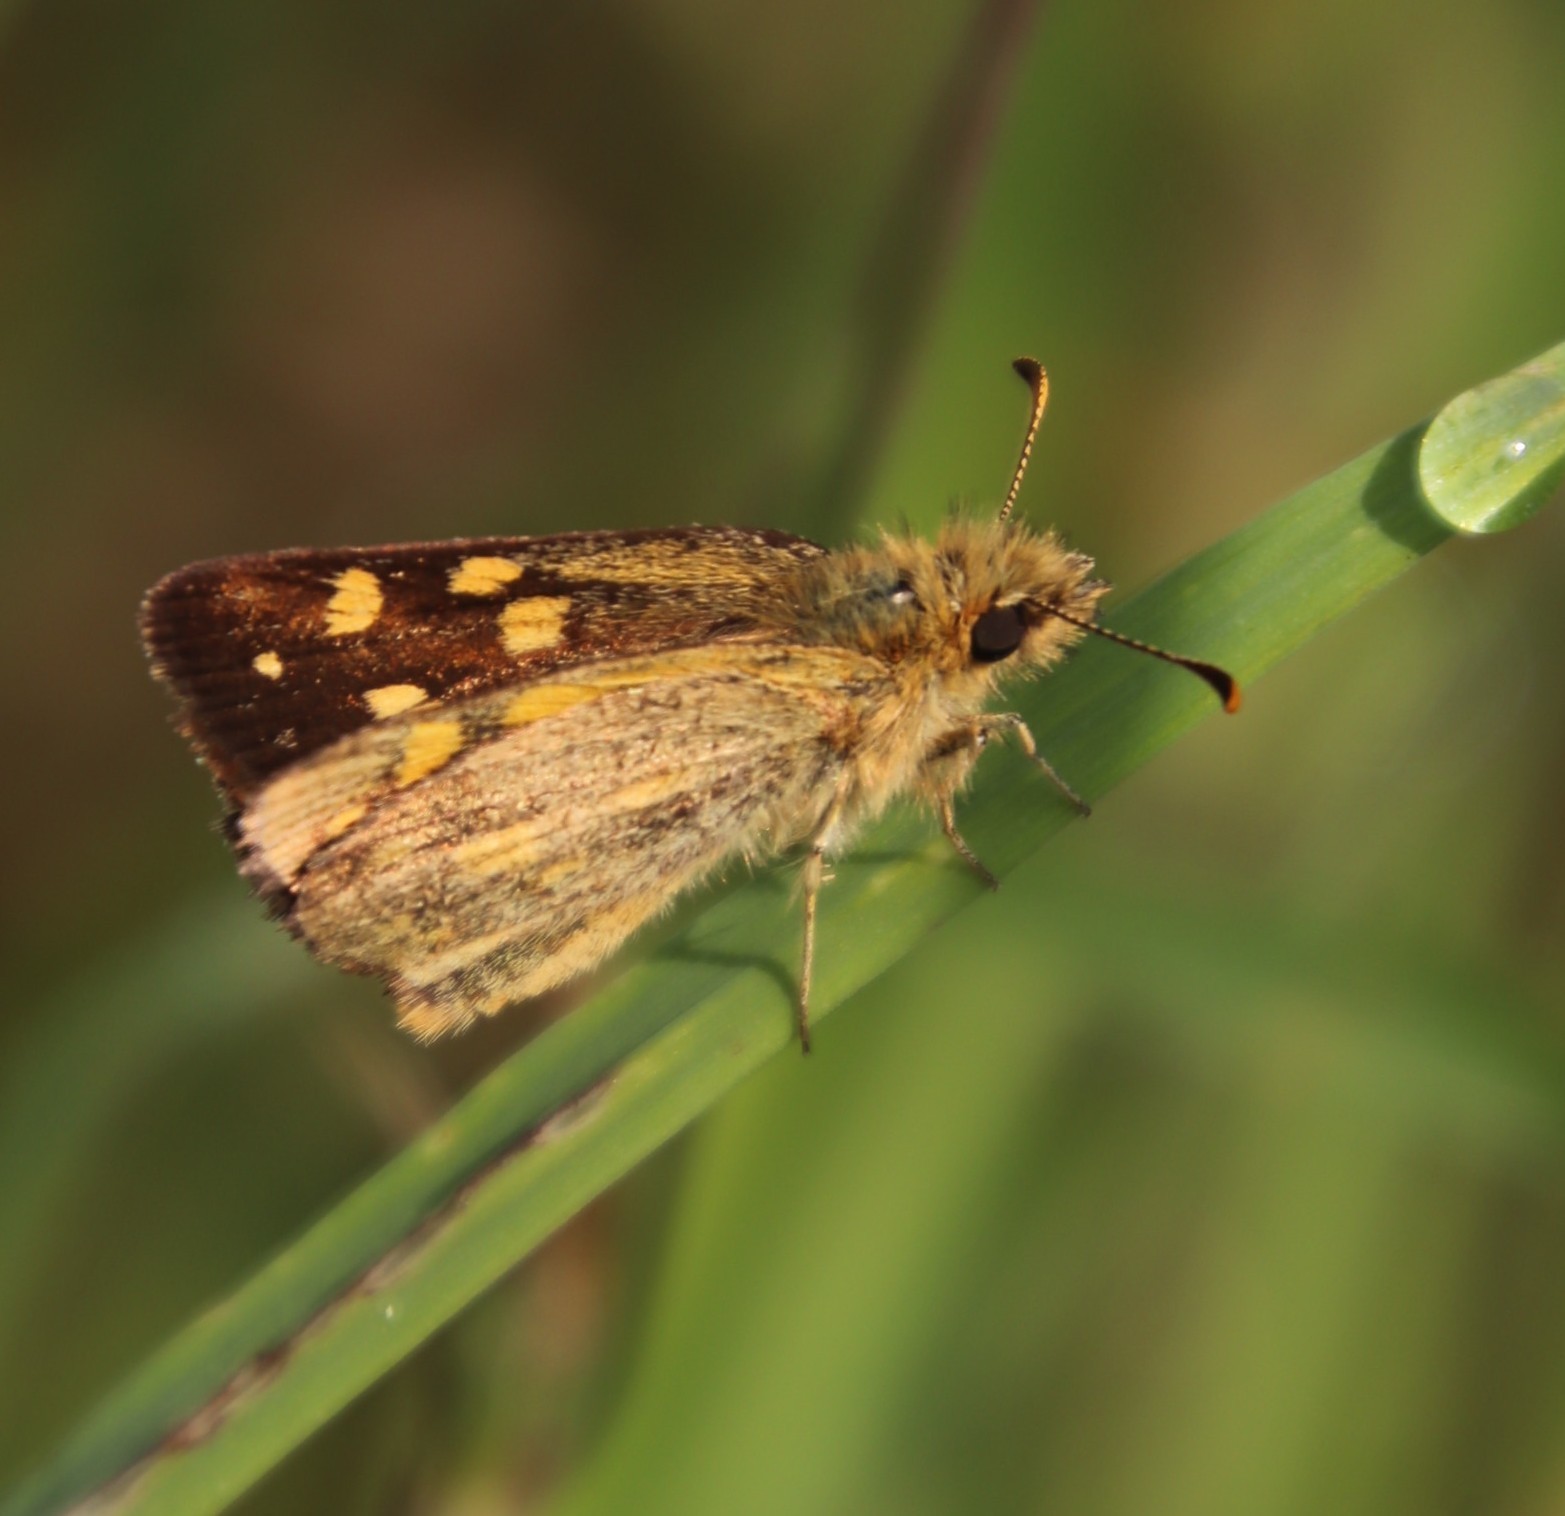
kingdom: Animalia
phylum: Arthropoda
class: Insecta
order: Lepidoptera
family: Hesperiidae
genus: Metisella
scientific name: Metisella malgacha
